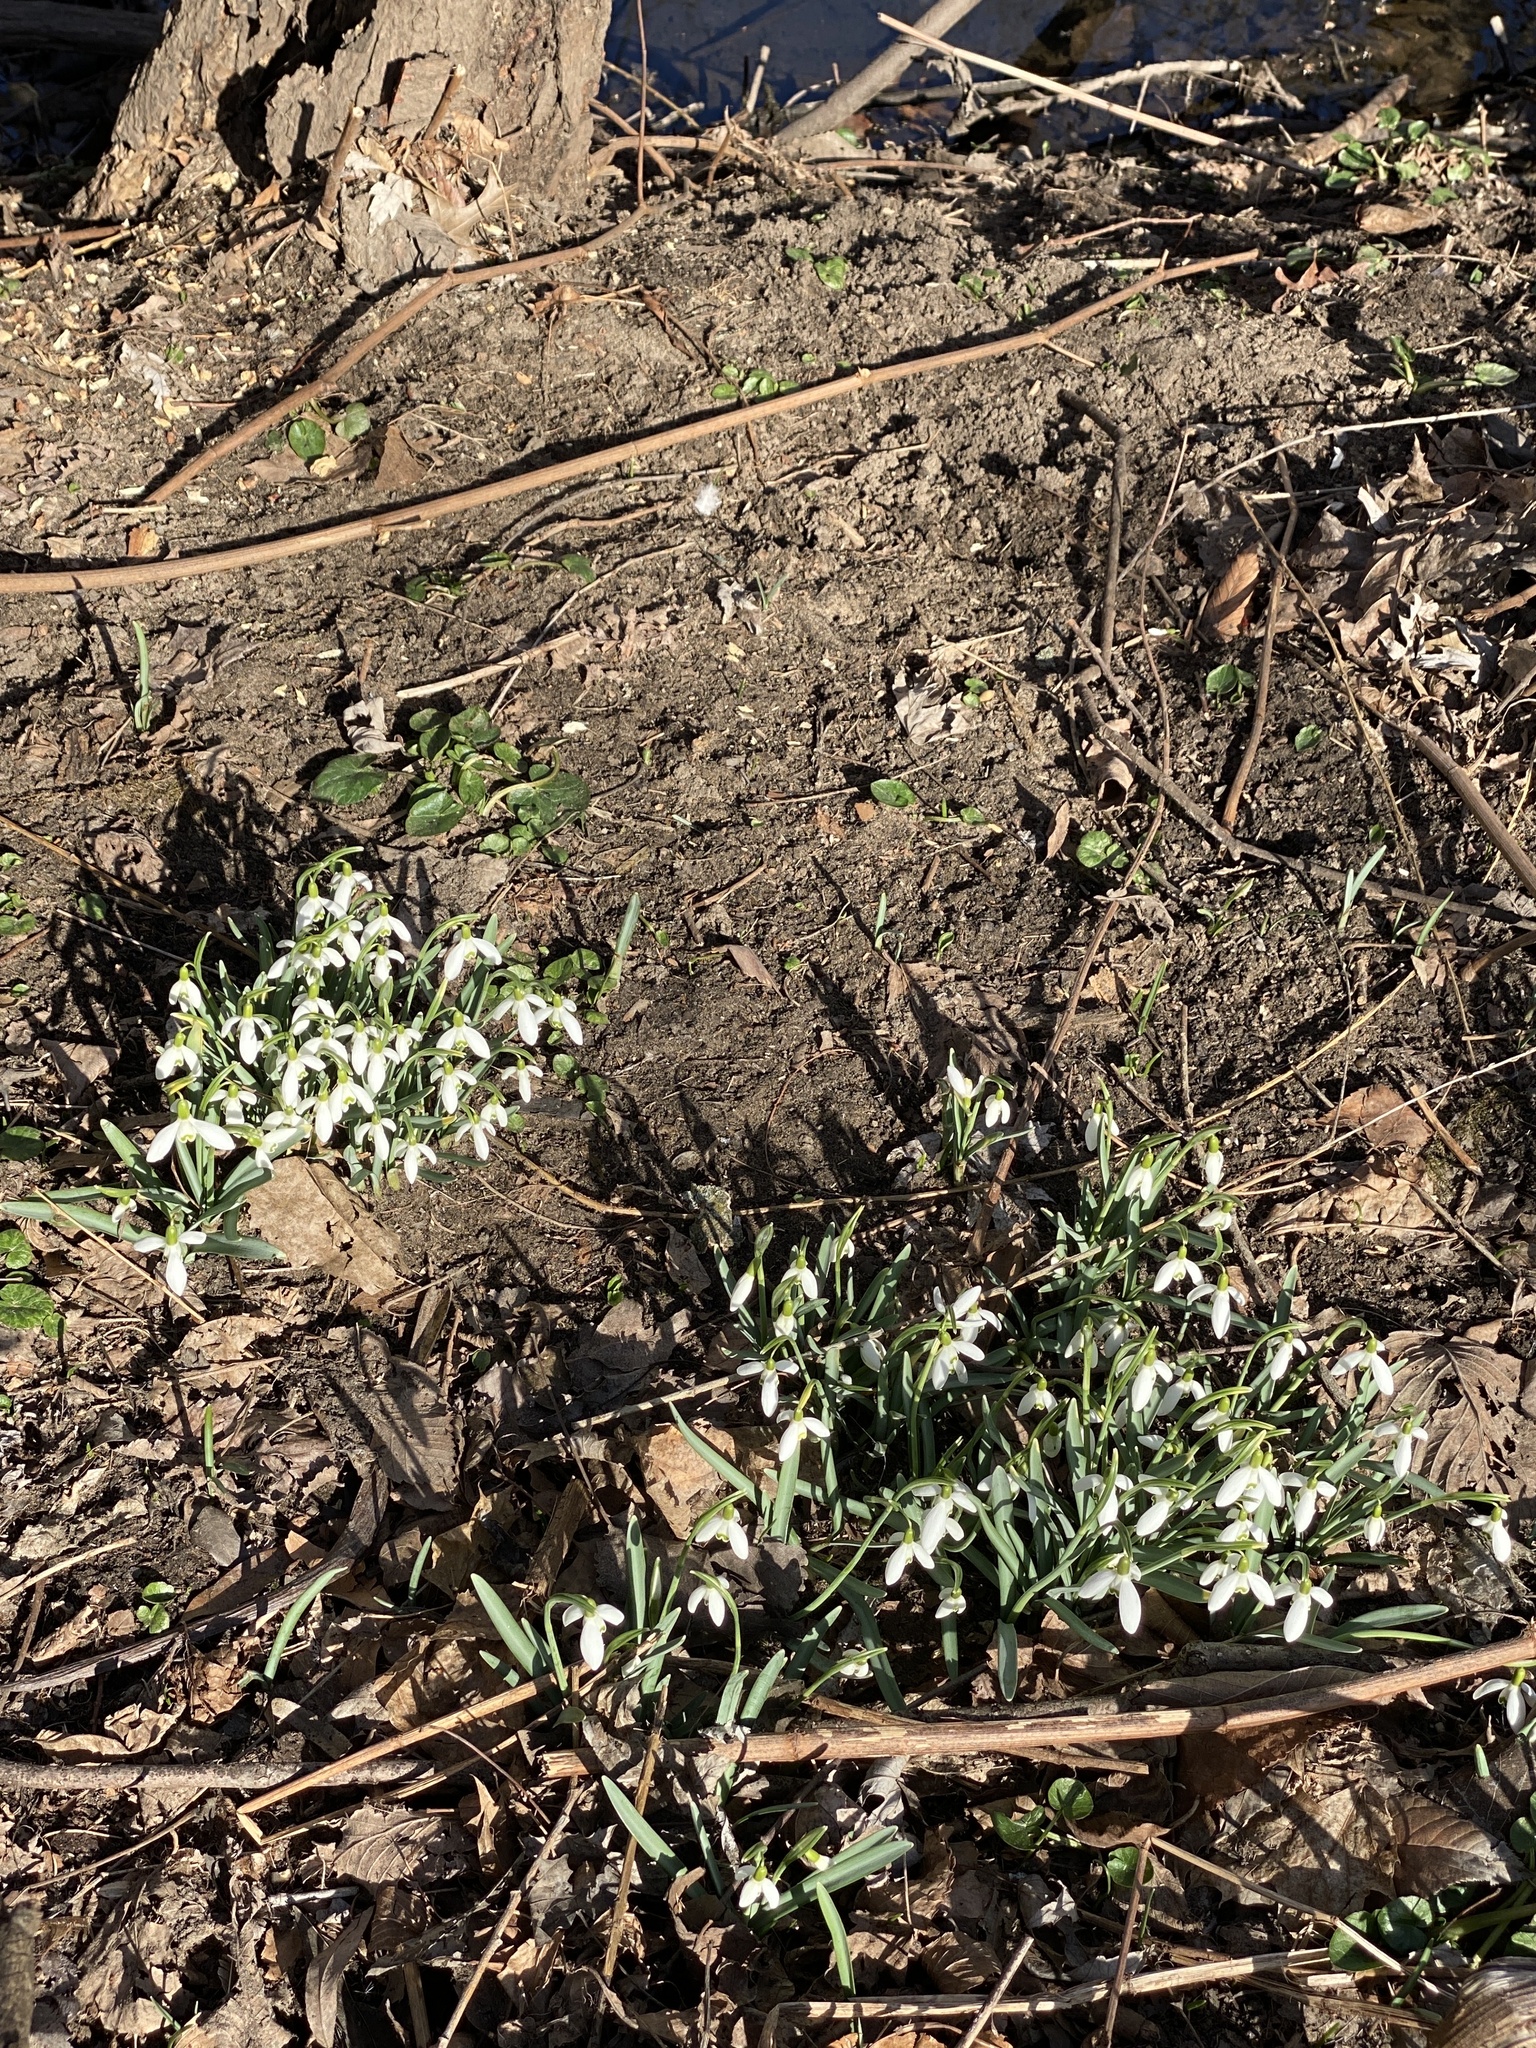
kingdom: Plantae
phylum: Tracheophyta
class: Liliopsida
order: Asparagales
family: Amaryllidaceae
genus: Galanthus
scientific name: Galanthus nivalis
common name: Snowdrop
